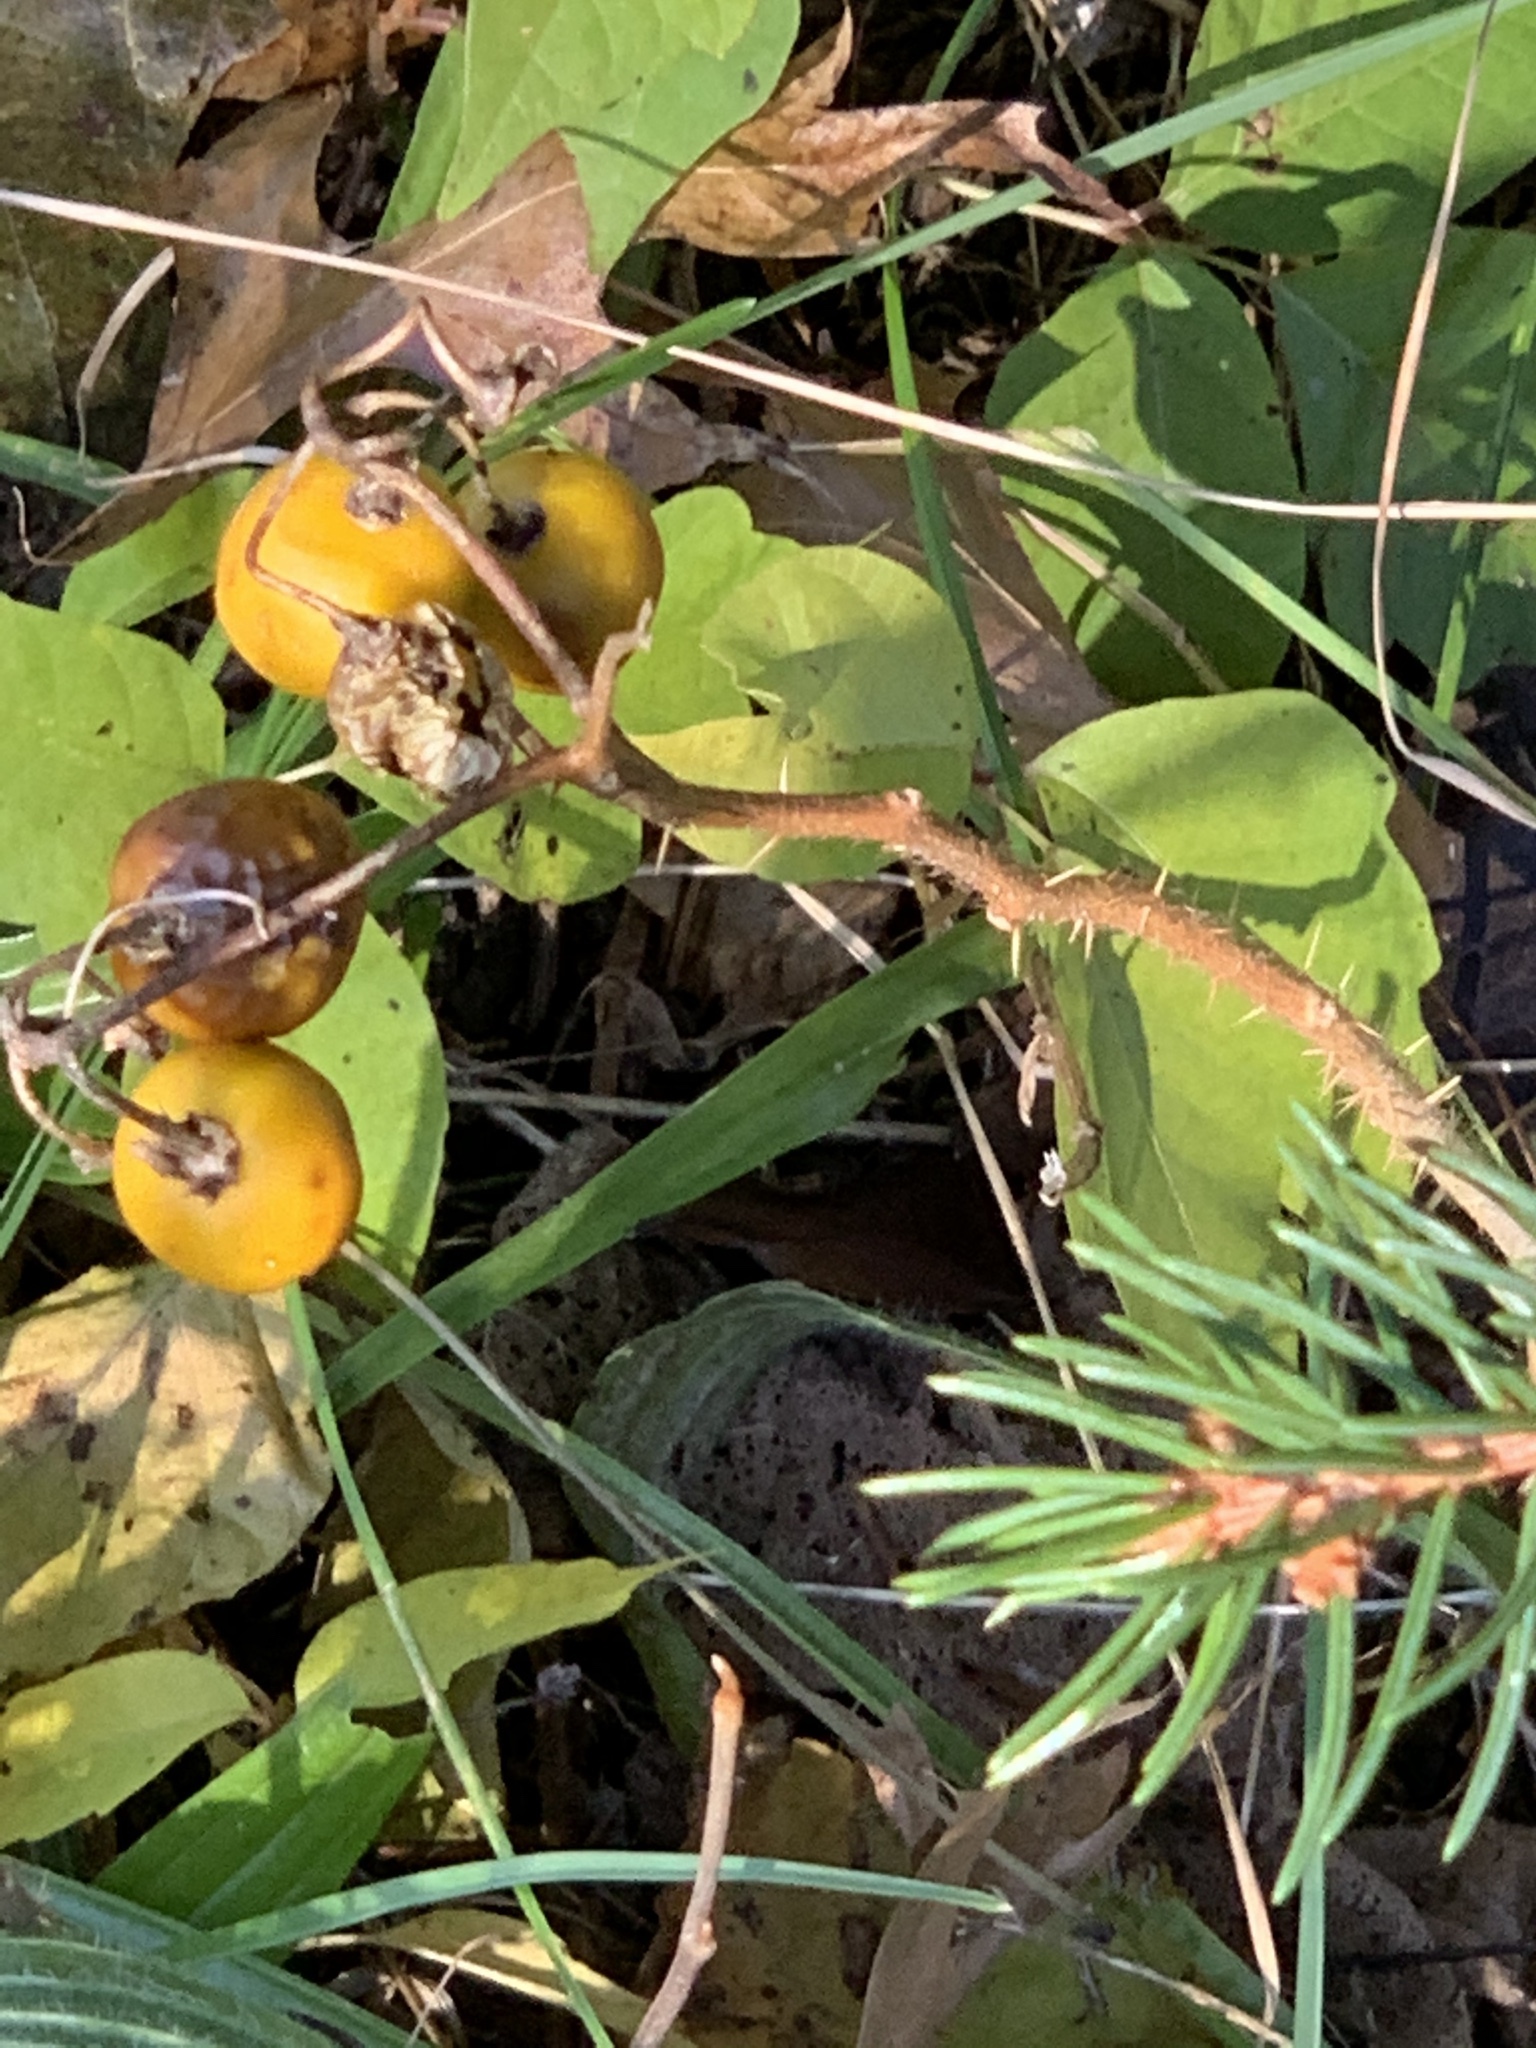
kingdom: Plantae
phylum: Tracheophyta
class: Magnoliopsida
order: Solanales
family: Solanaceae
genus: Solanum
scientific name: Solanum carolinense
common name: Horse-nettle
